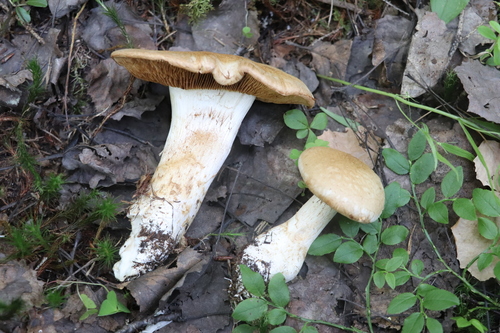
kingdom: Fungi
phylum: Basidiomycota
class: Agaricomycetes
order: Agaricales
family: Cortinariaceae
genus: Cystinarius
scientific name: Cystinarius crassus
